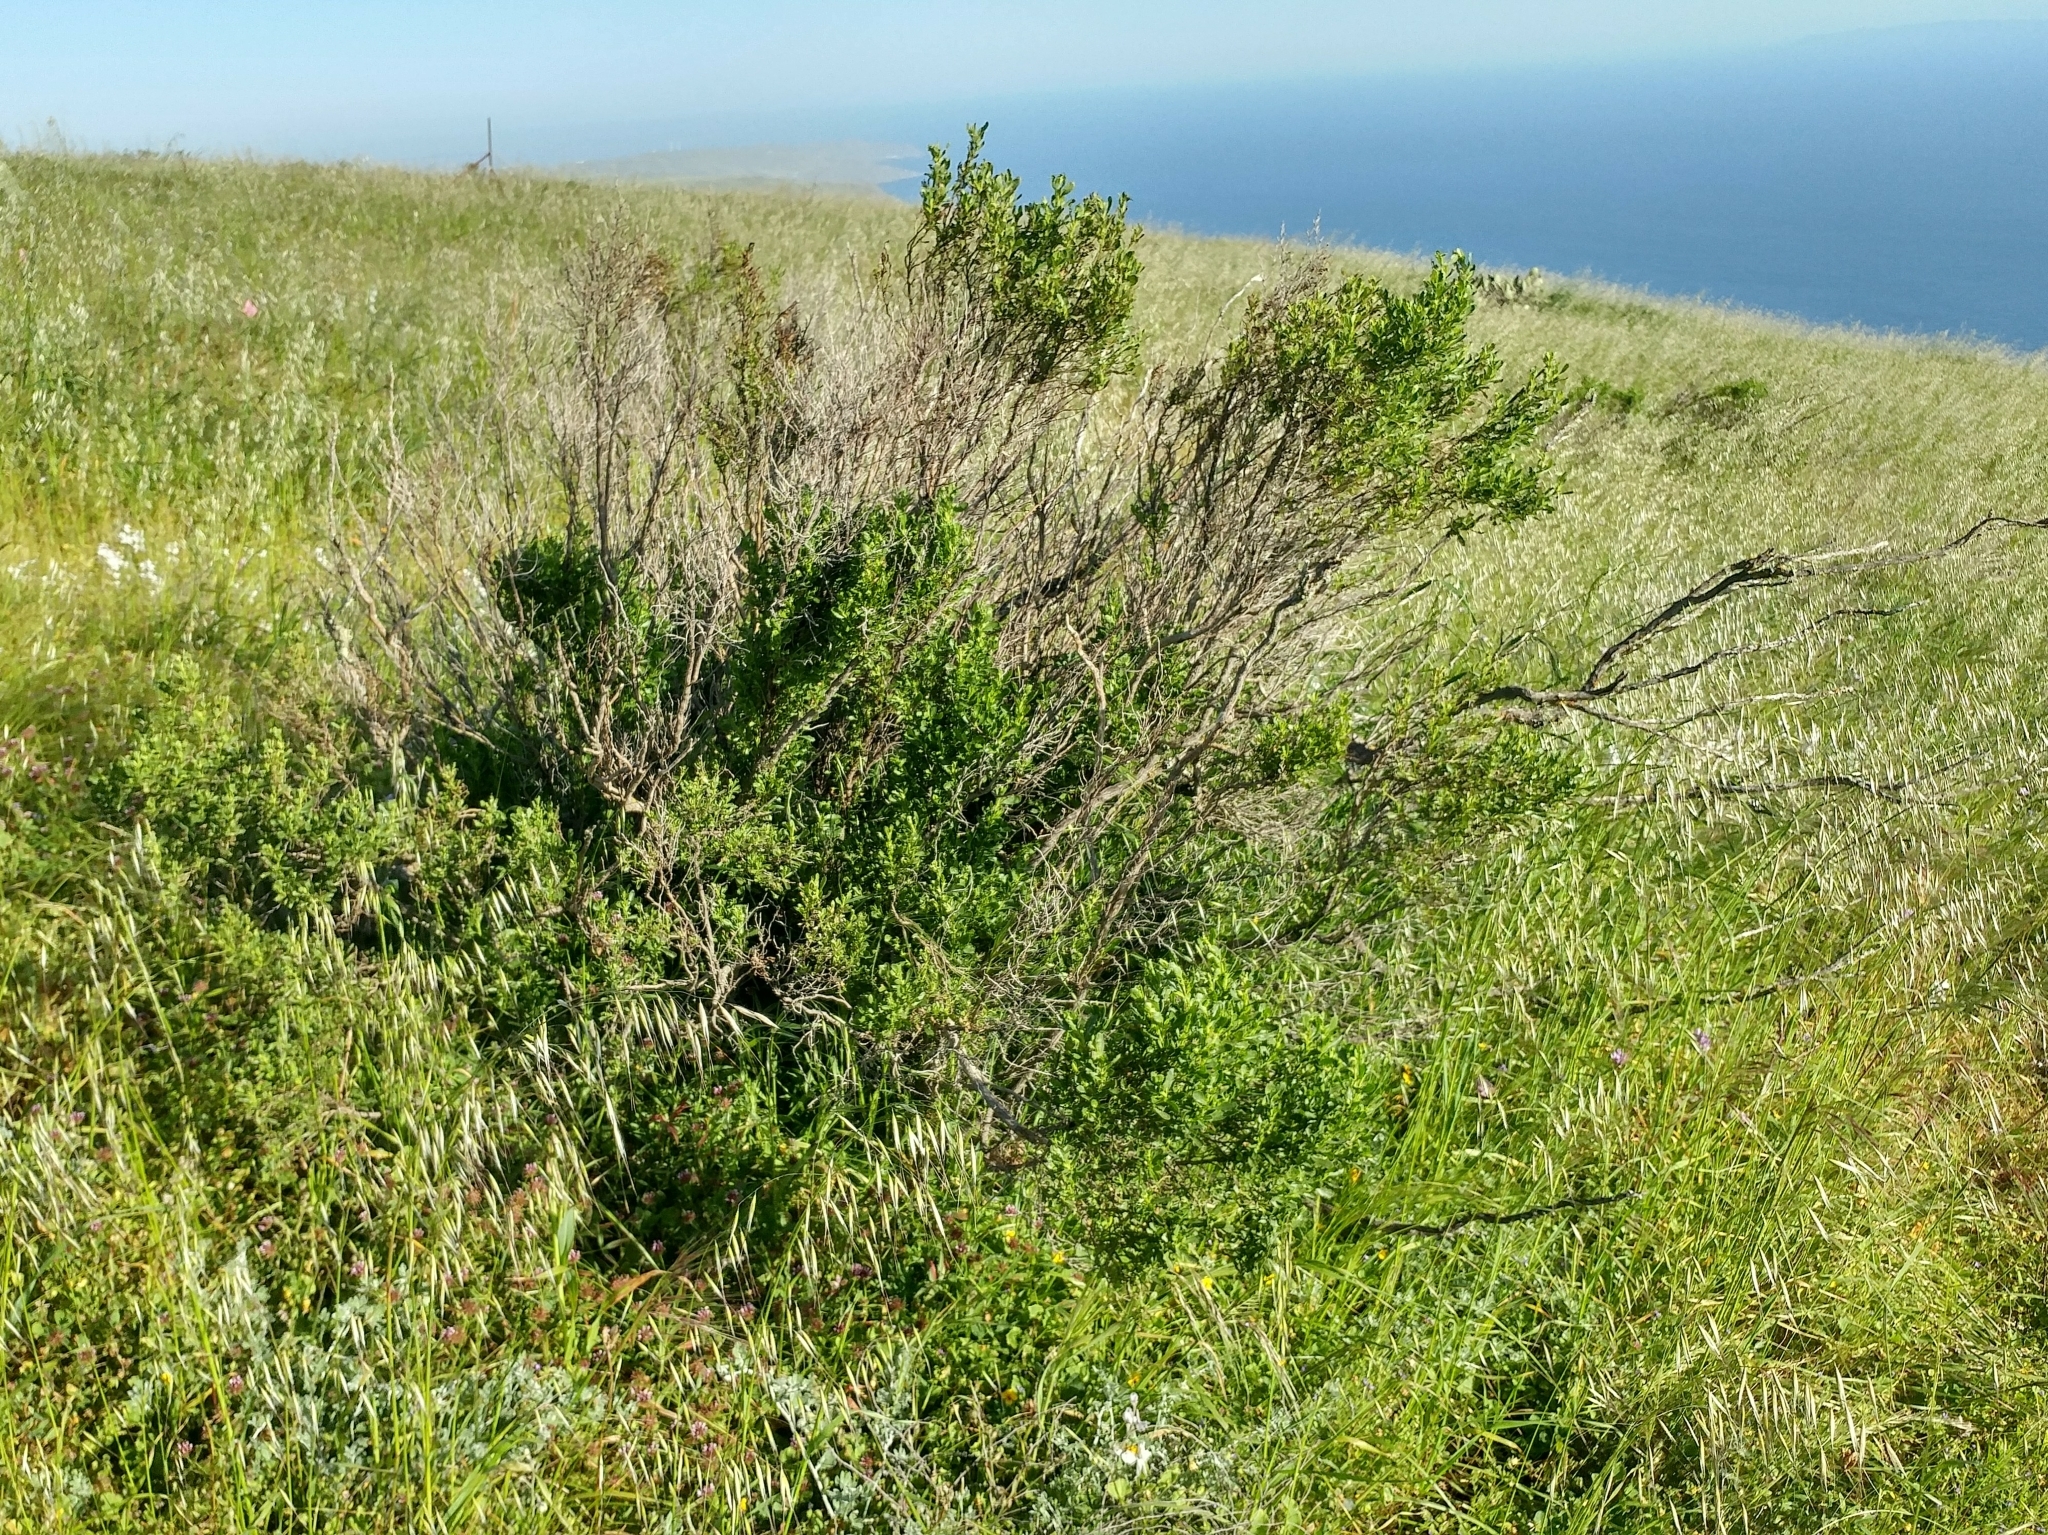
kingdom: Plantae
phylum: Tracheophyta
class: Magnoliopsida
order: Asterales
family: Asteraceae
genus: Baccharis
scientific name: Baccharis pilularis
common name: Coyotebrush
